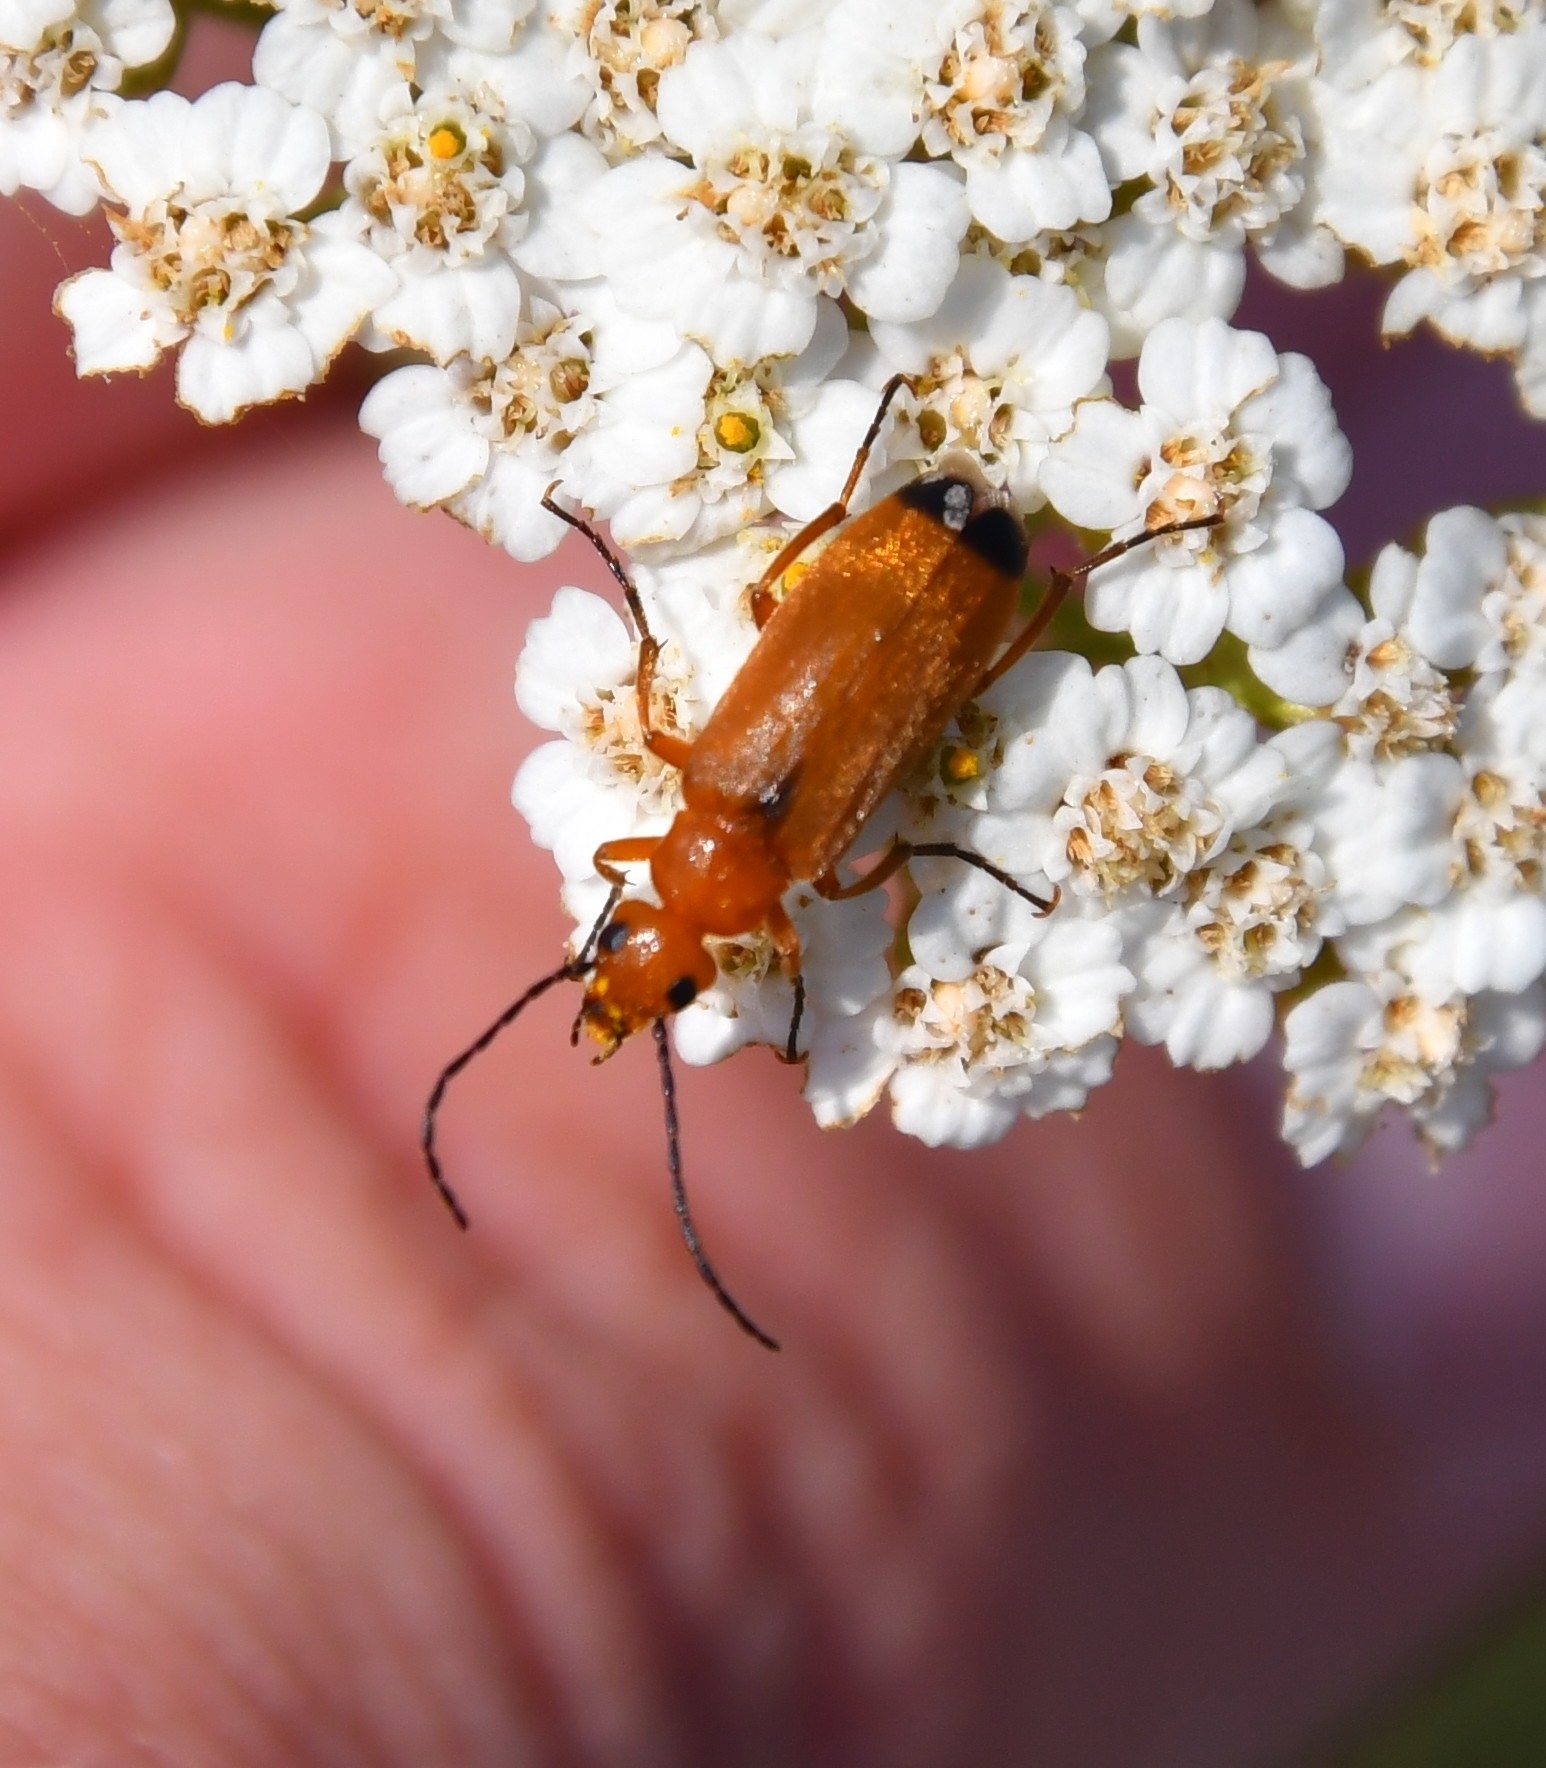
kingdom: Animalia
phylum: Arthropoda
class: Insecta
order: Coleoptera
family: Cantharidae
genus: Rhagonycha
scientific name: Rhagonycha fulva
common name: Common red soldier beetle
